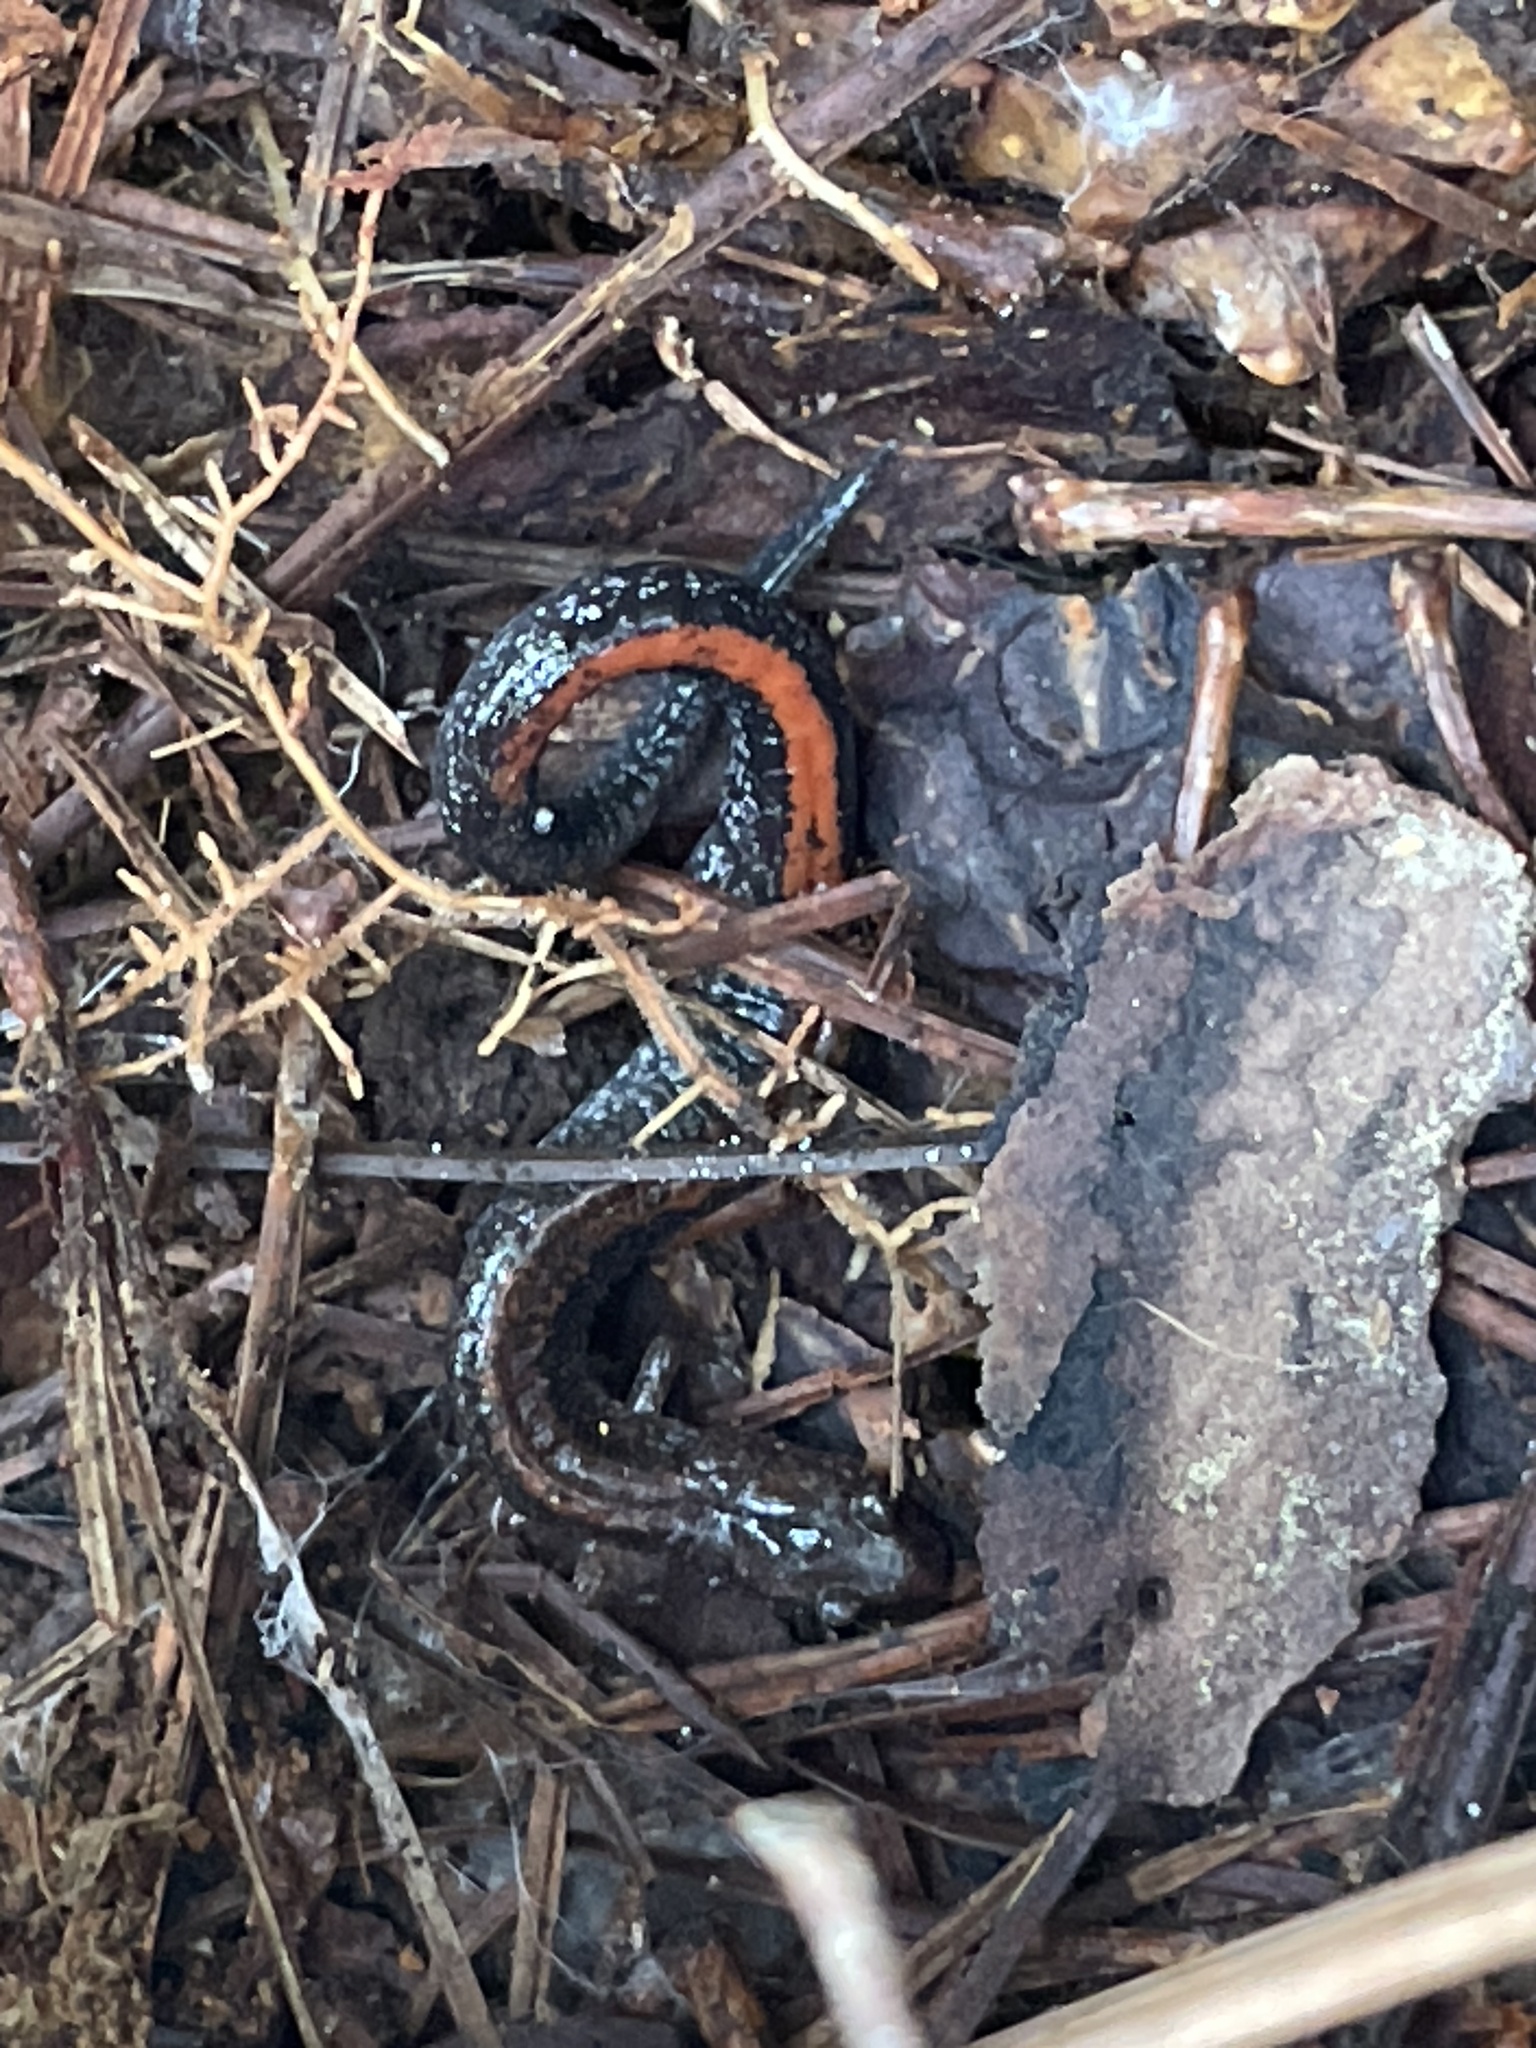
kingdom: Animalia
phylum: Chordata
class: Amphibia
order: Caudata
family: Plethodontidae
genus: Plethodon
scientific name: Plethodon cinereus
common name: Redback salamander
